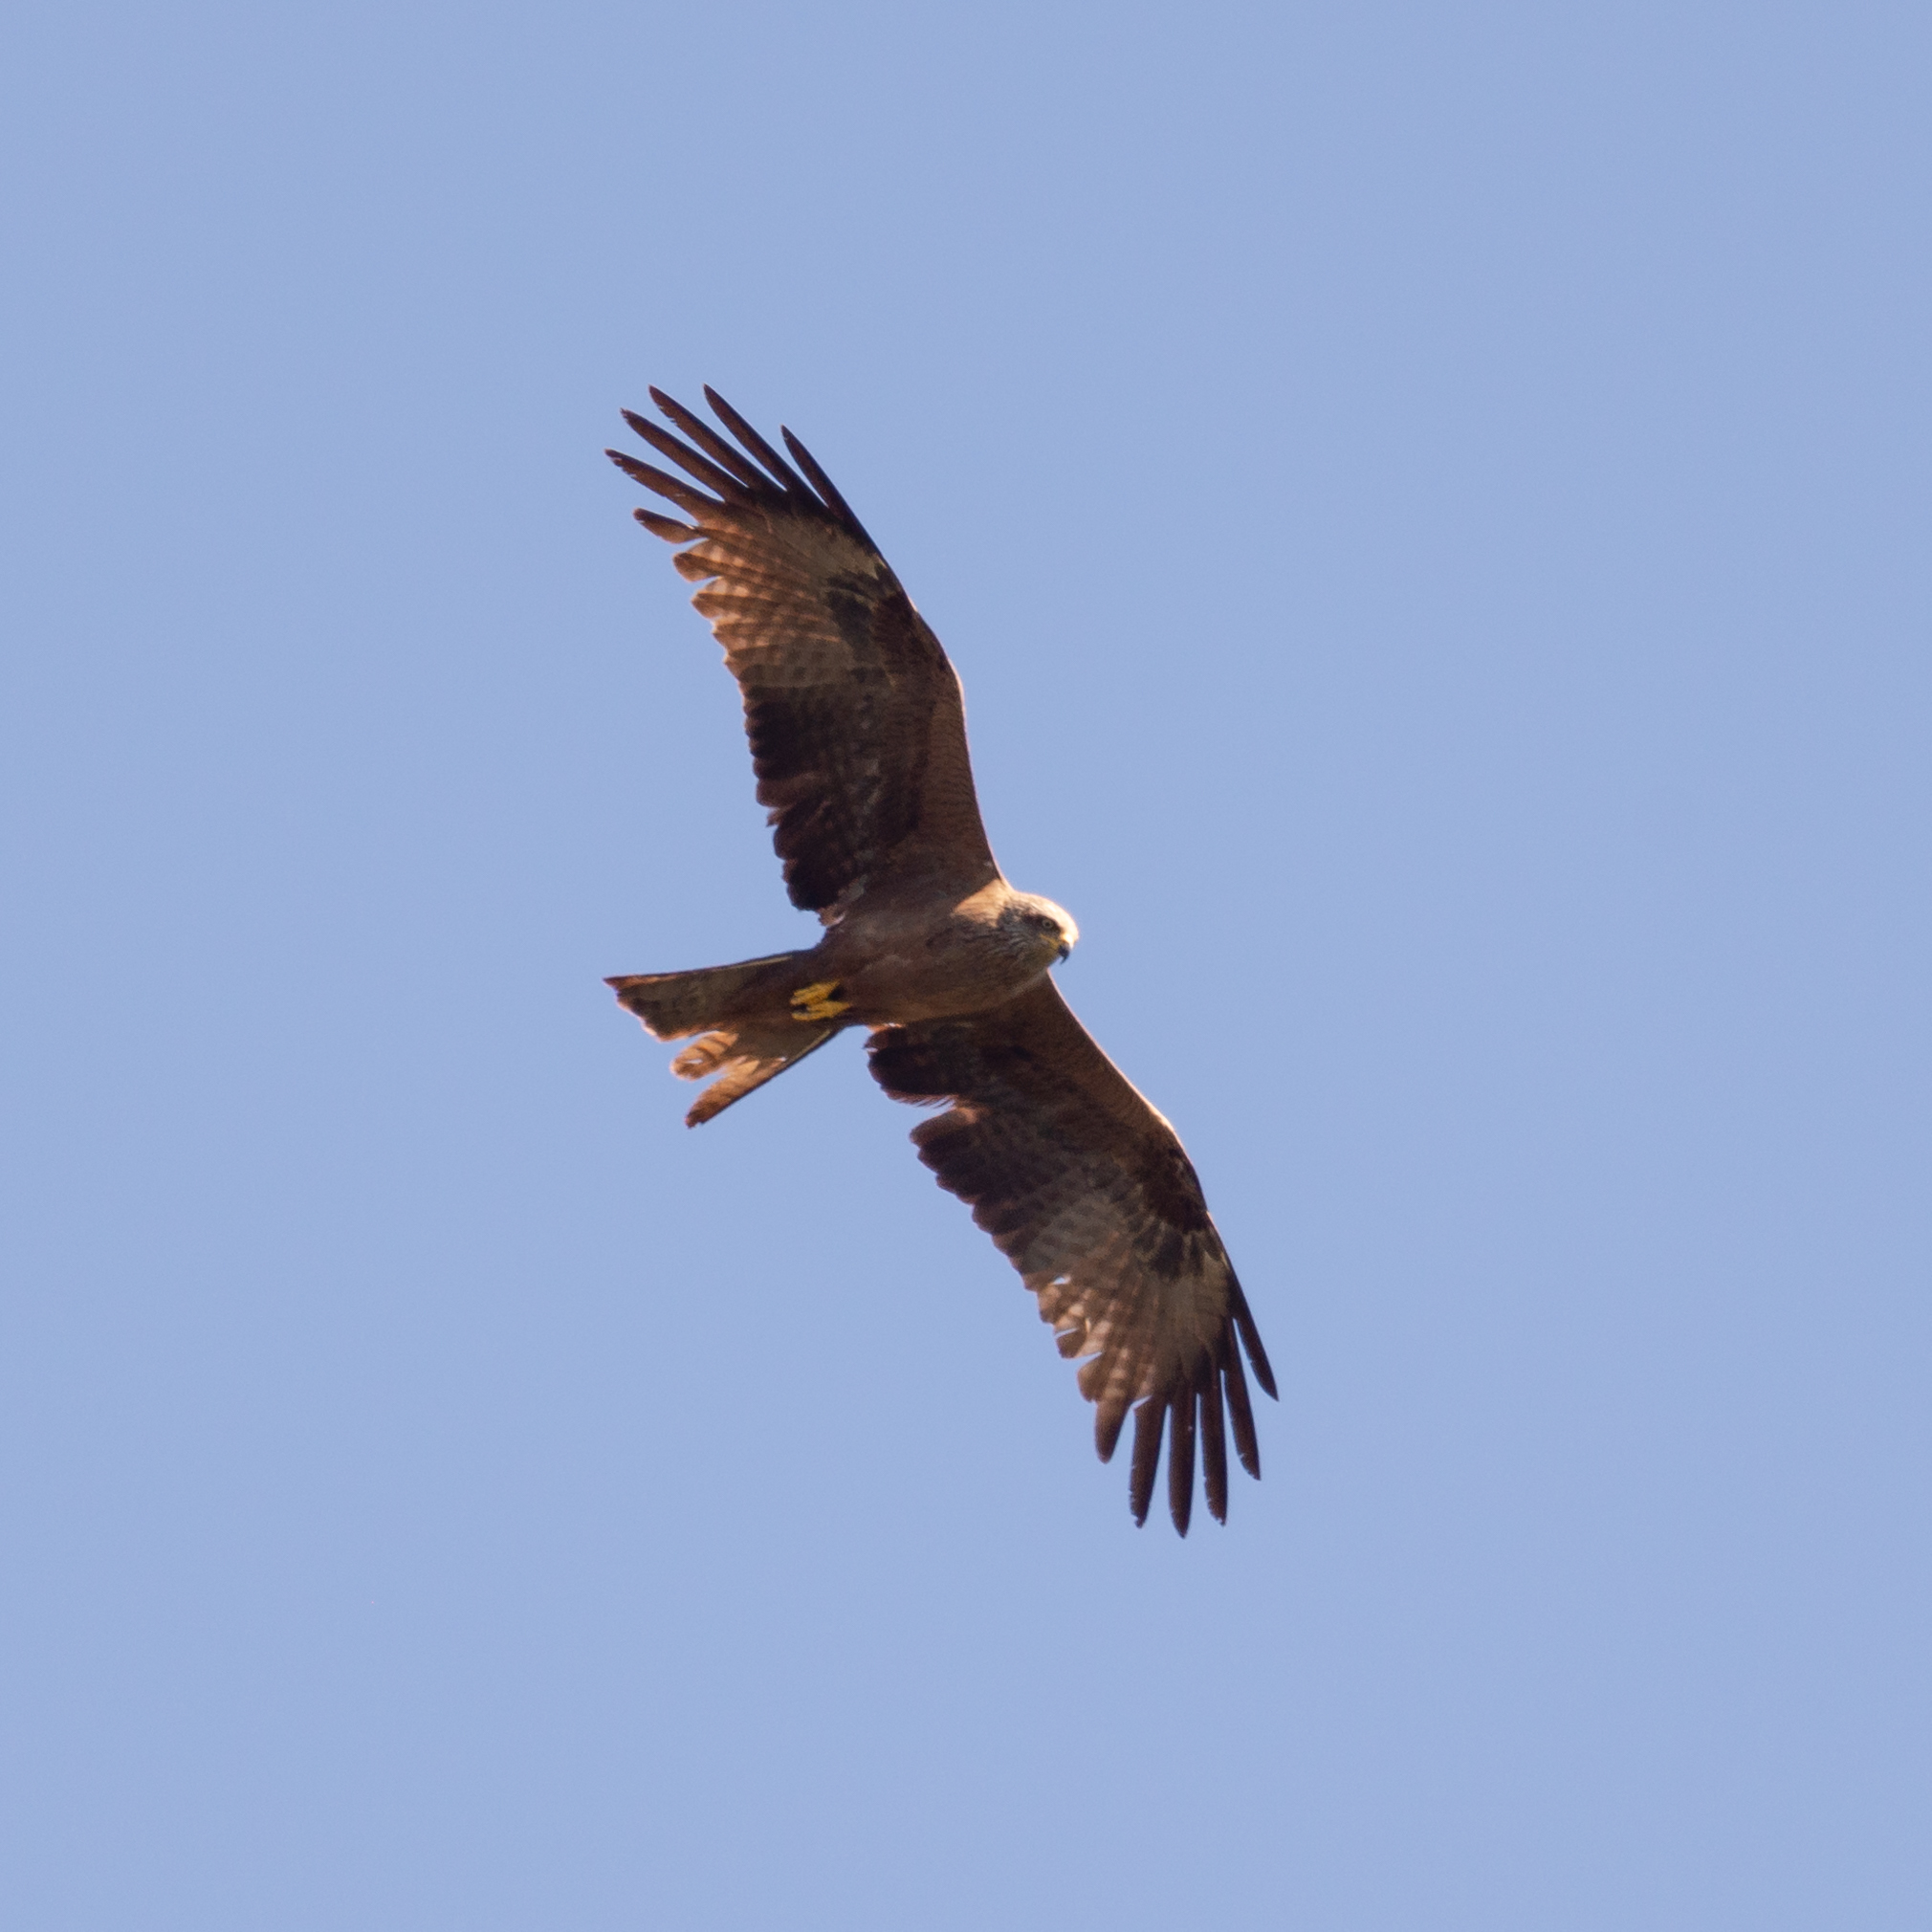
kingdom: Animalia
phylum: Chordata
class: Aves
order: Accipitriformes
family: Accipitridae
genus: Milvus
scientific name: Milvus migrans
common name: Black kite
